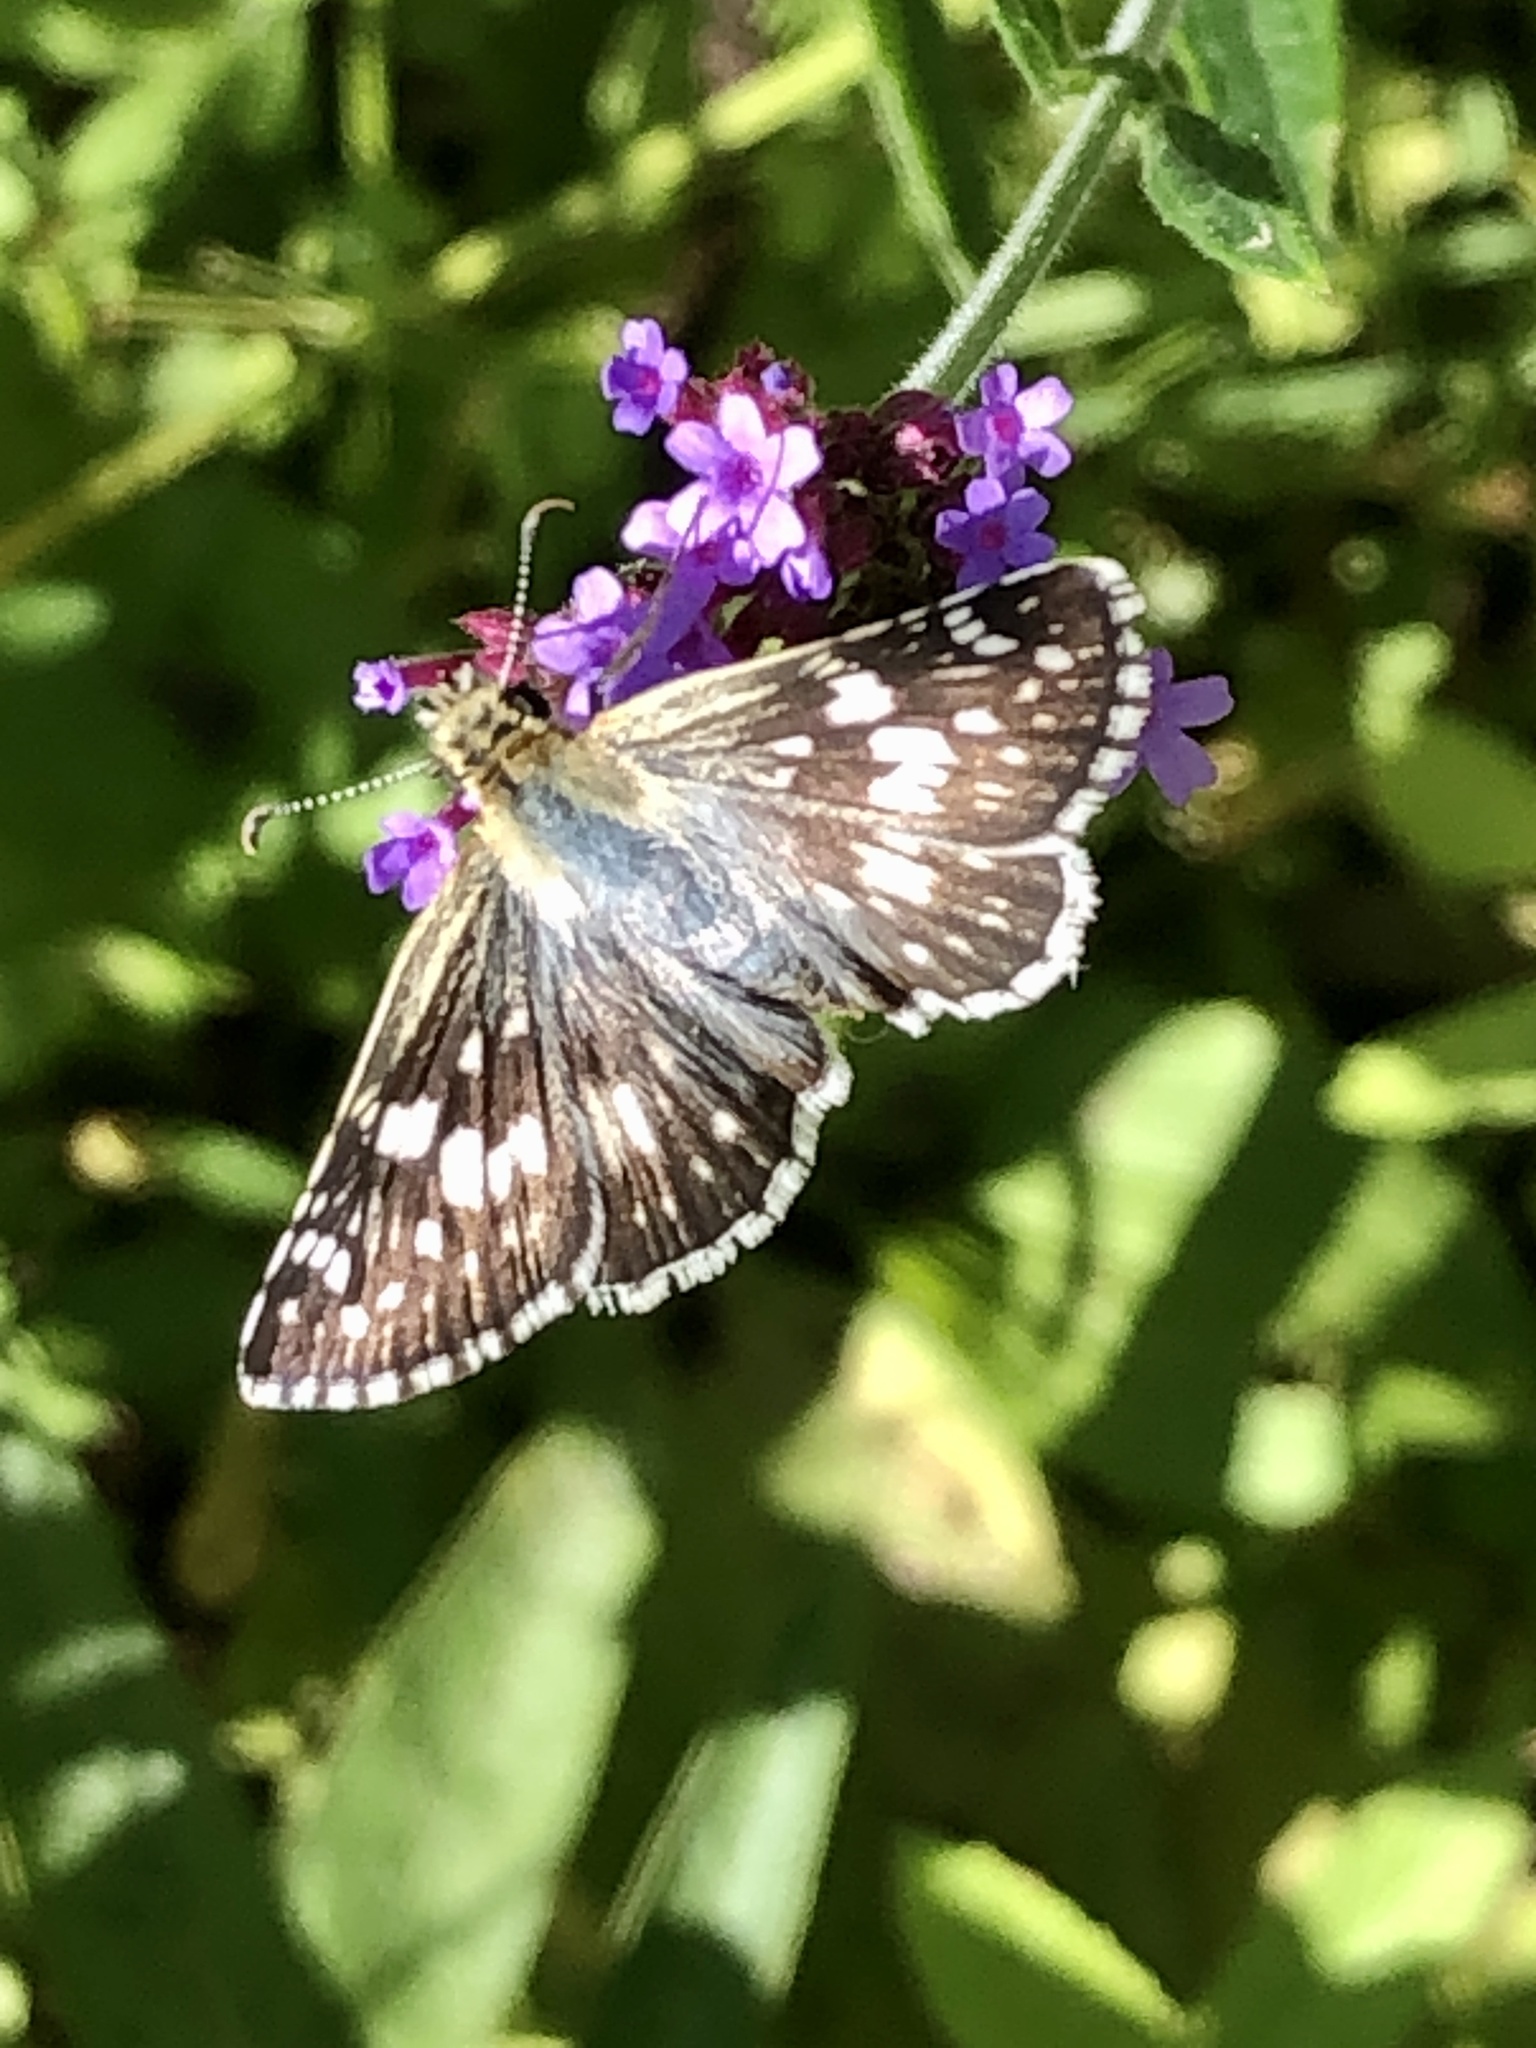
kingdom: Animalia
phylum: Arthropoda
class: Insecta
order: Lepidoptera
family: Hesperiidae
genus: Burnsius
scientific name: Burnsius communis
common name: Common checkered-skipper
